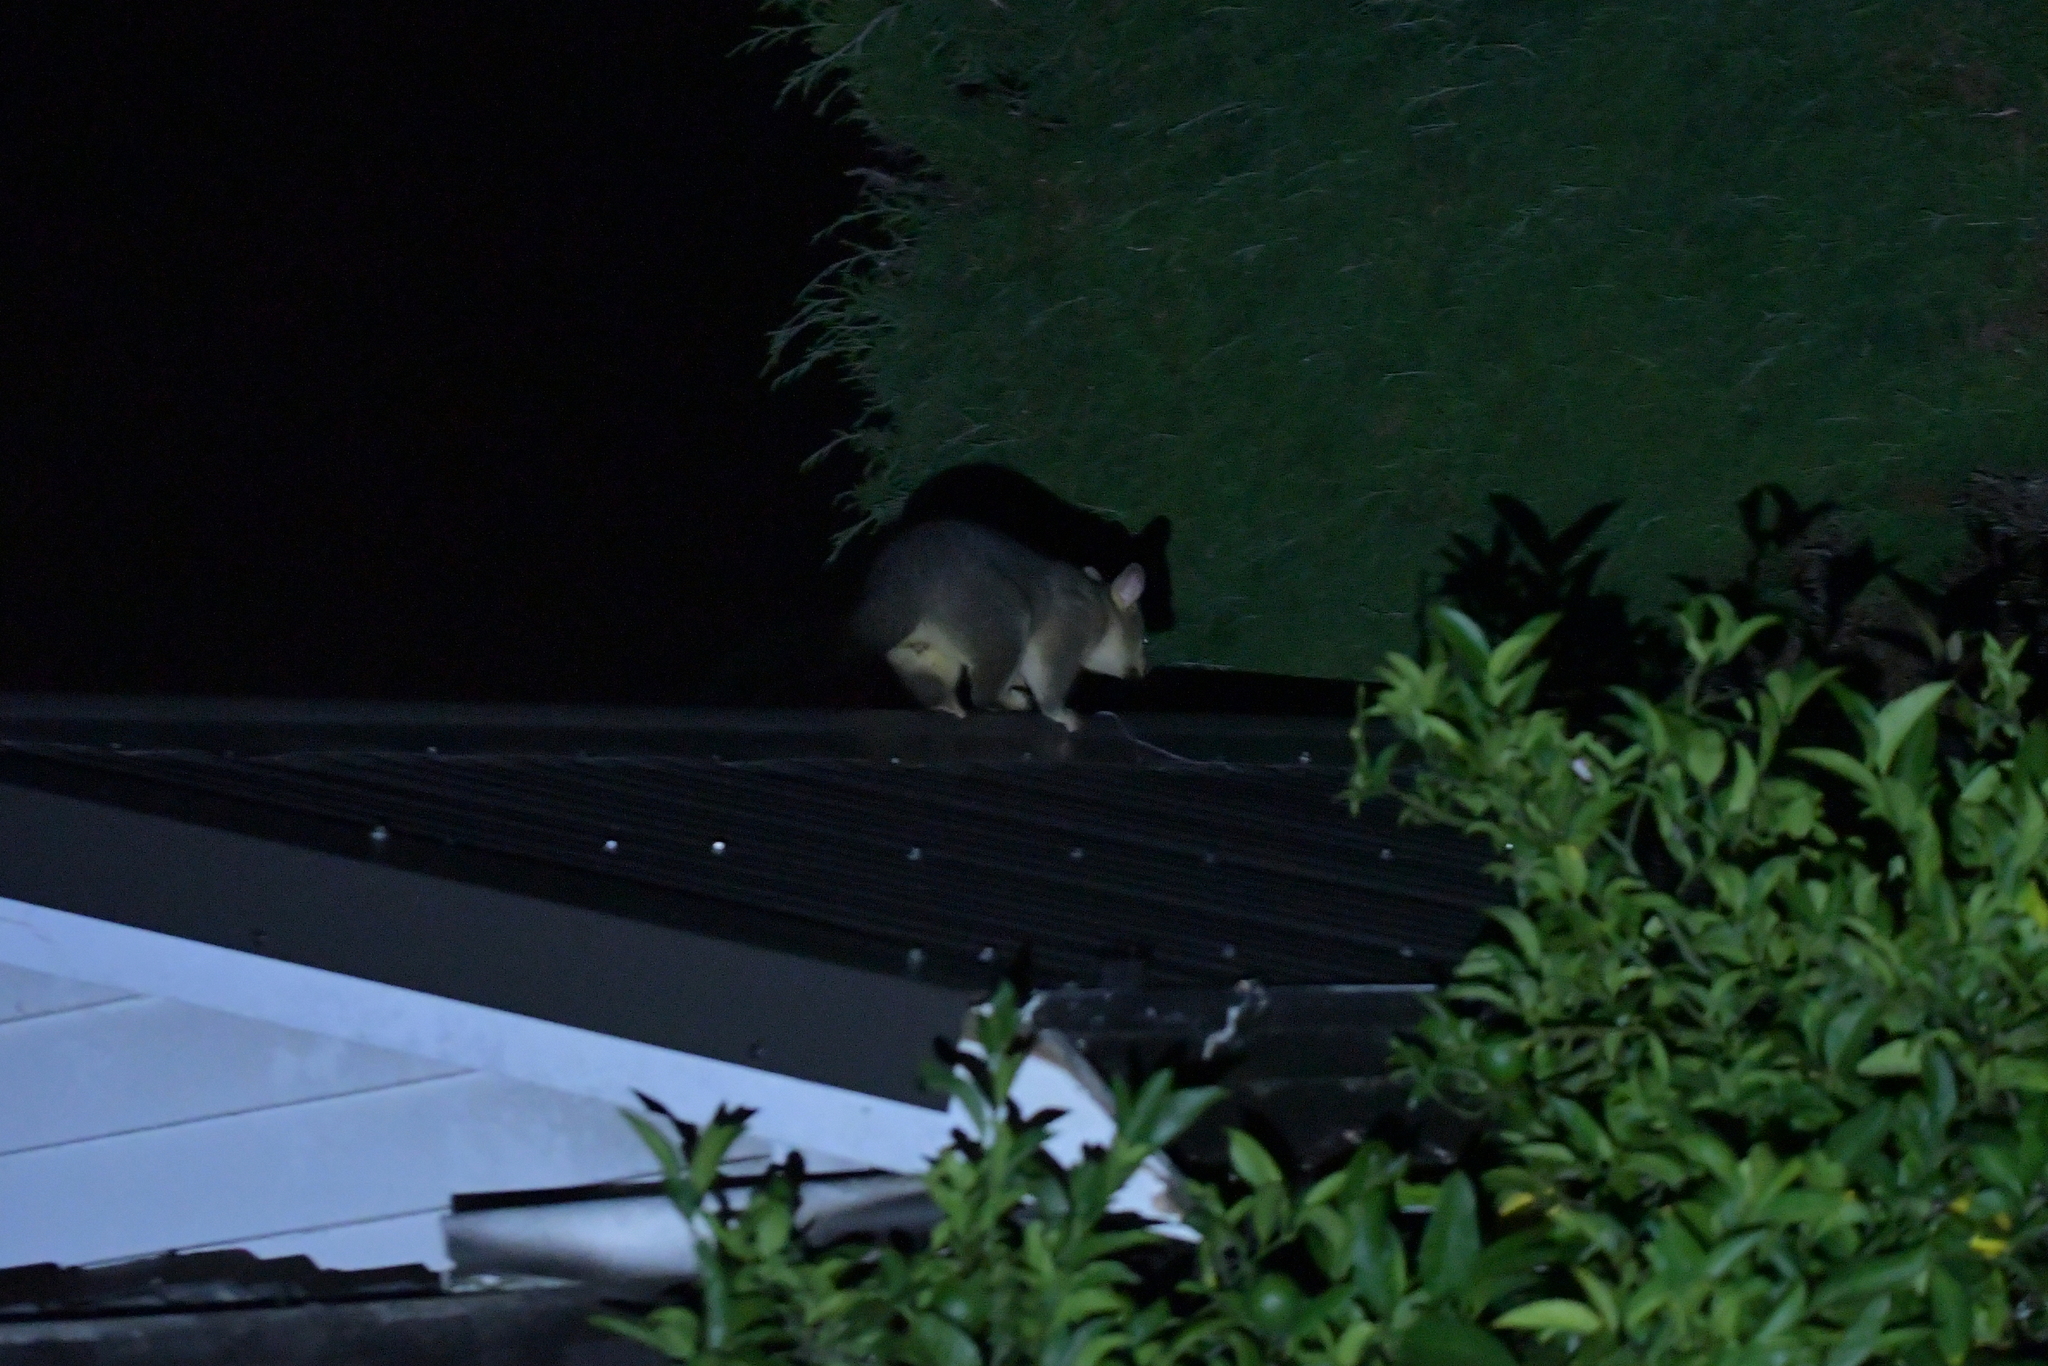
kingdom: Animalia
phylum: Chordata
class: Mammalia
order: Diprotodontia
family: Phalangeridae
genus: Trichosurus
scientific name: Trichosurus vulpecula
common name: Common brushtail
